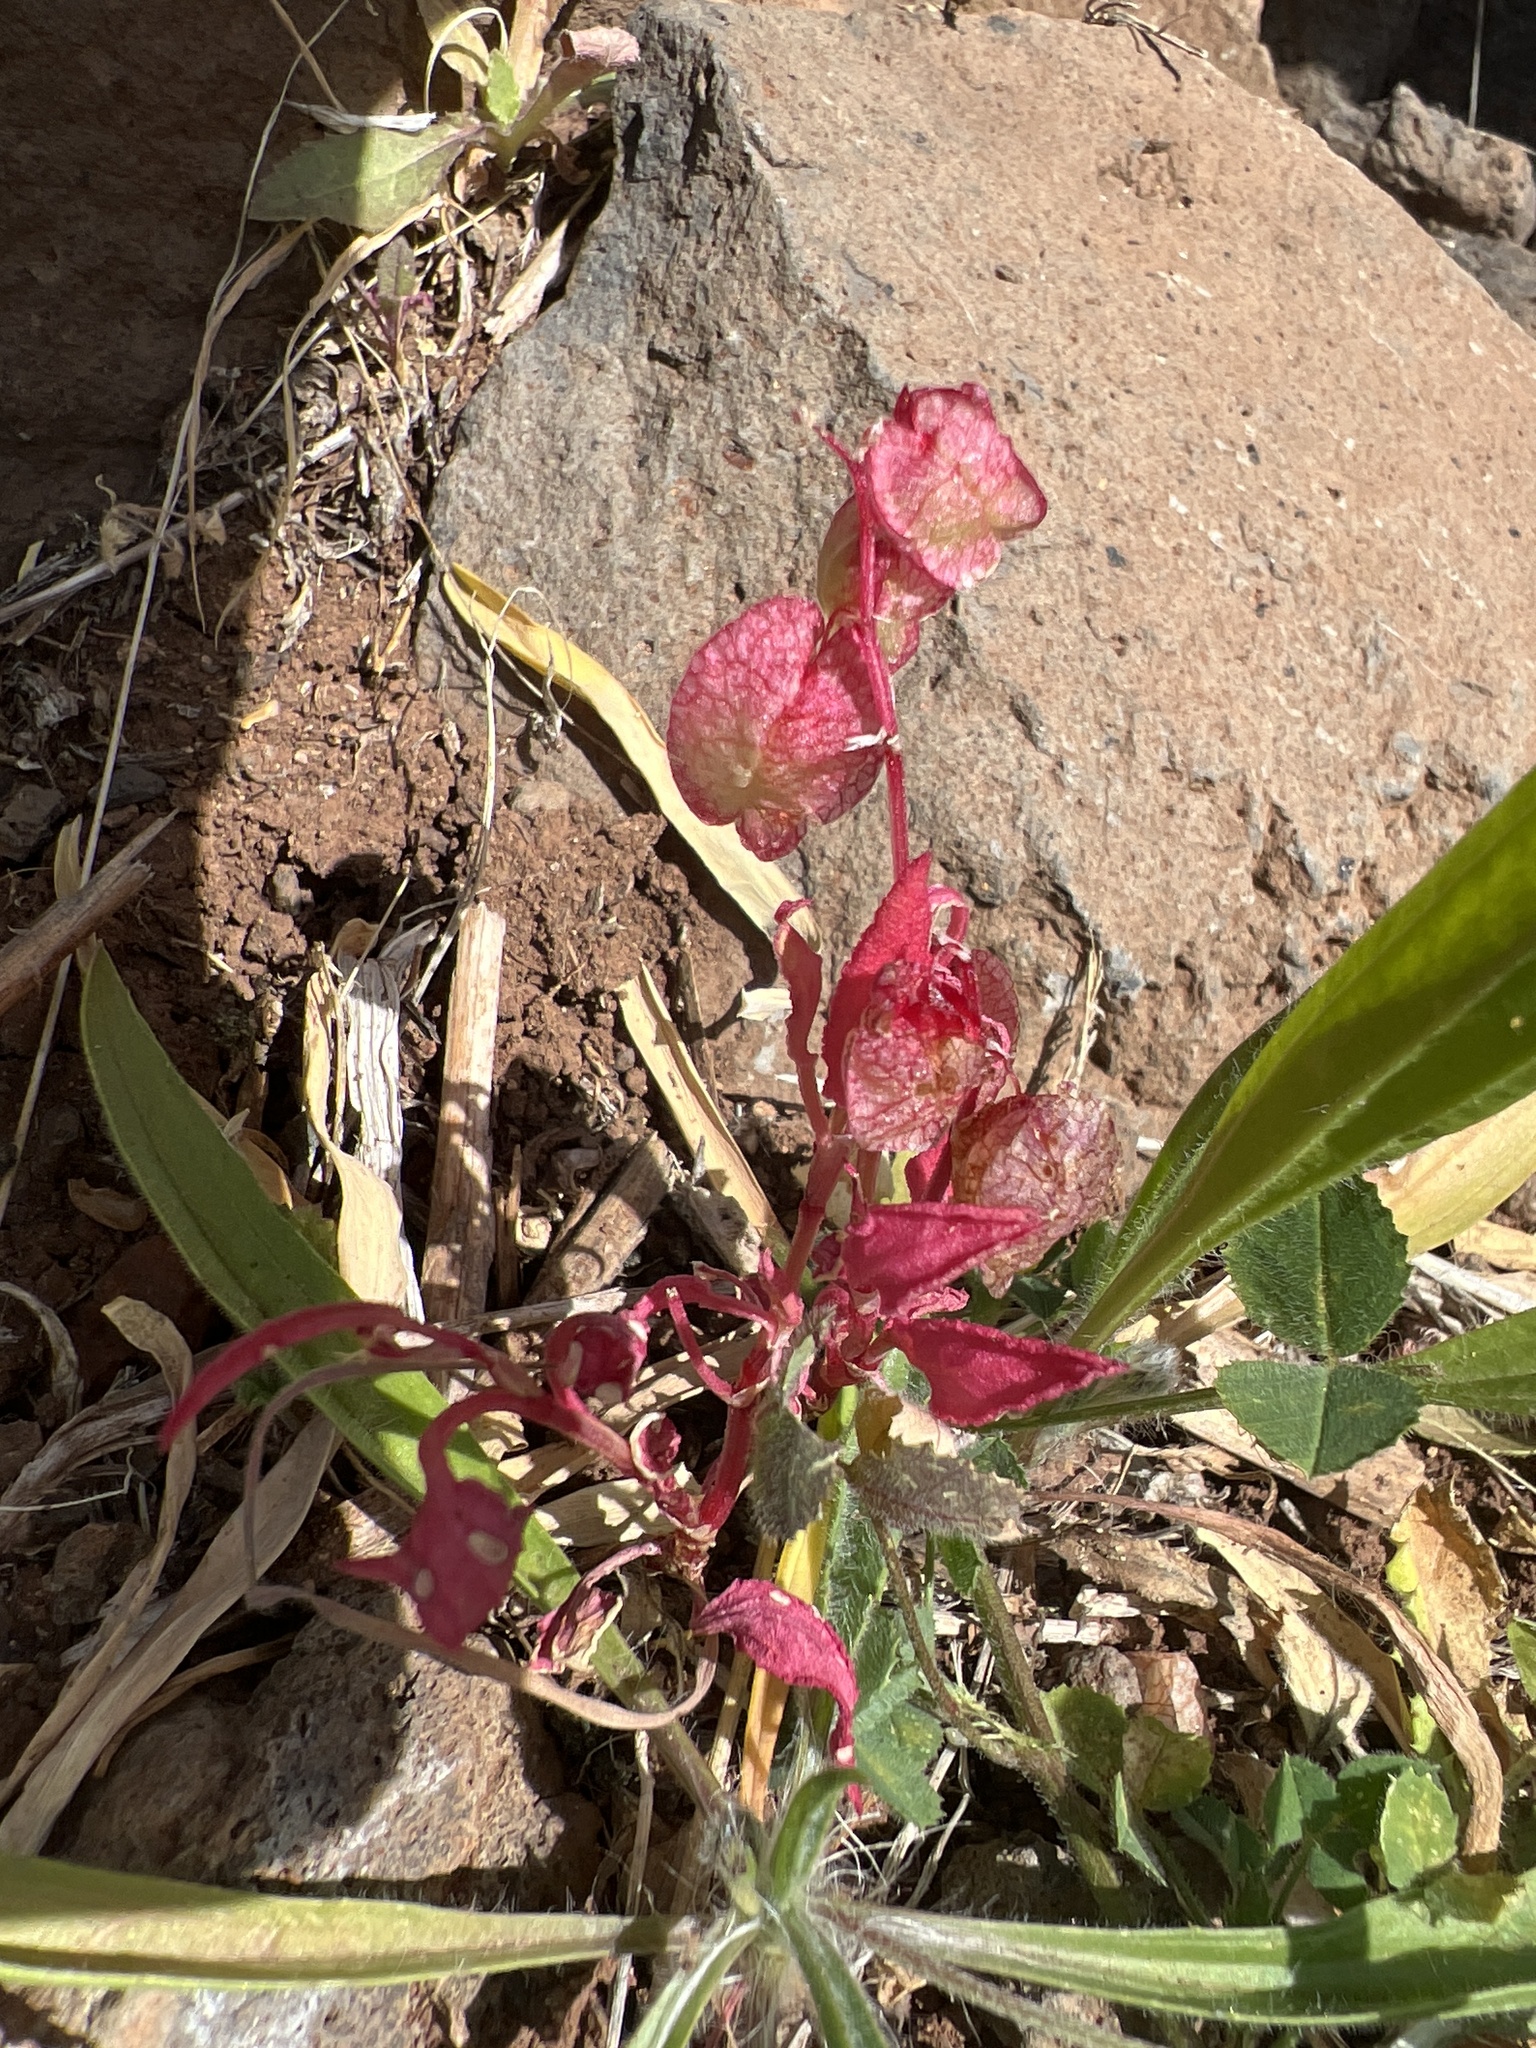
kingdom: Plantae
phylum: Tracheophyta
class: Magnoliopsida
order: Caryophyllales
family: Polygonaceae
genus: Rumex
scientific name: Rumex vesicarius
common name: Bladder dock
